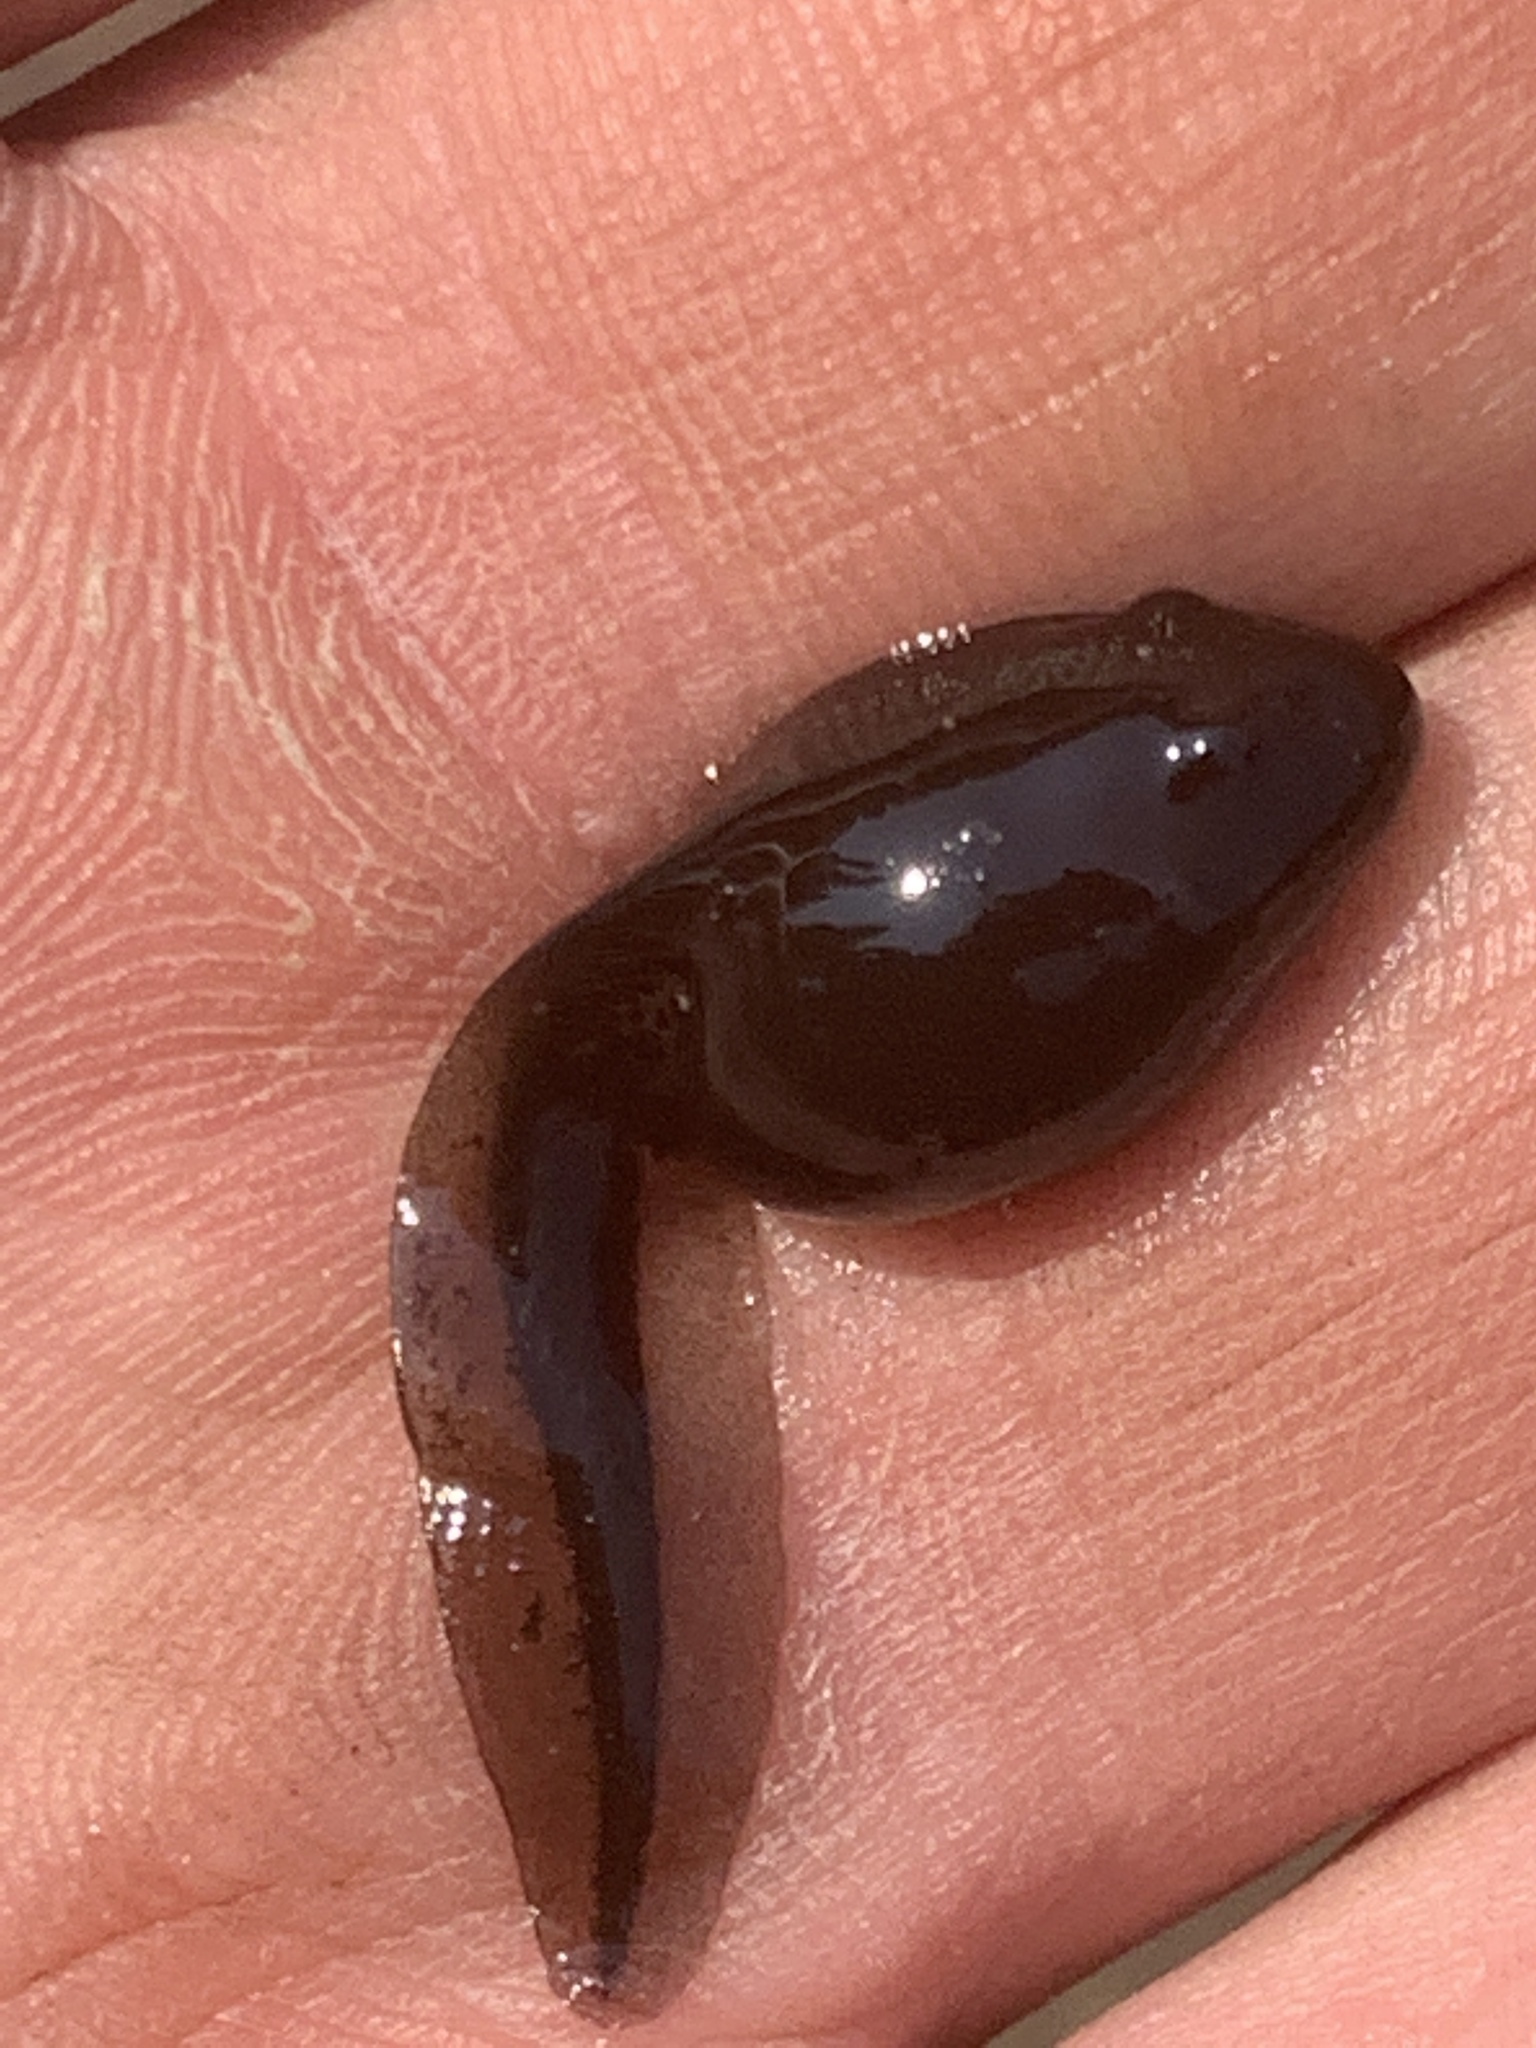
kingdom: Animalia
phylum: Chordata
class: Amphibia
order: Anura
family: Bufonidae
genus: Anaxyrus
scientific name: Anaxyrus boreas
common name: Western toad
